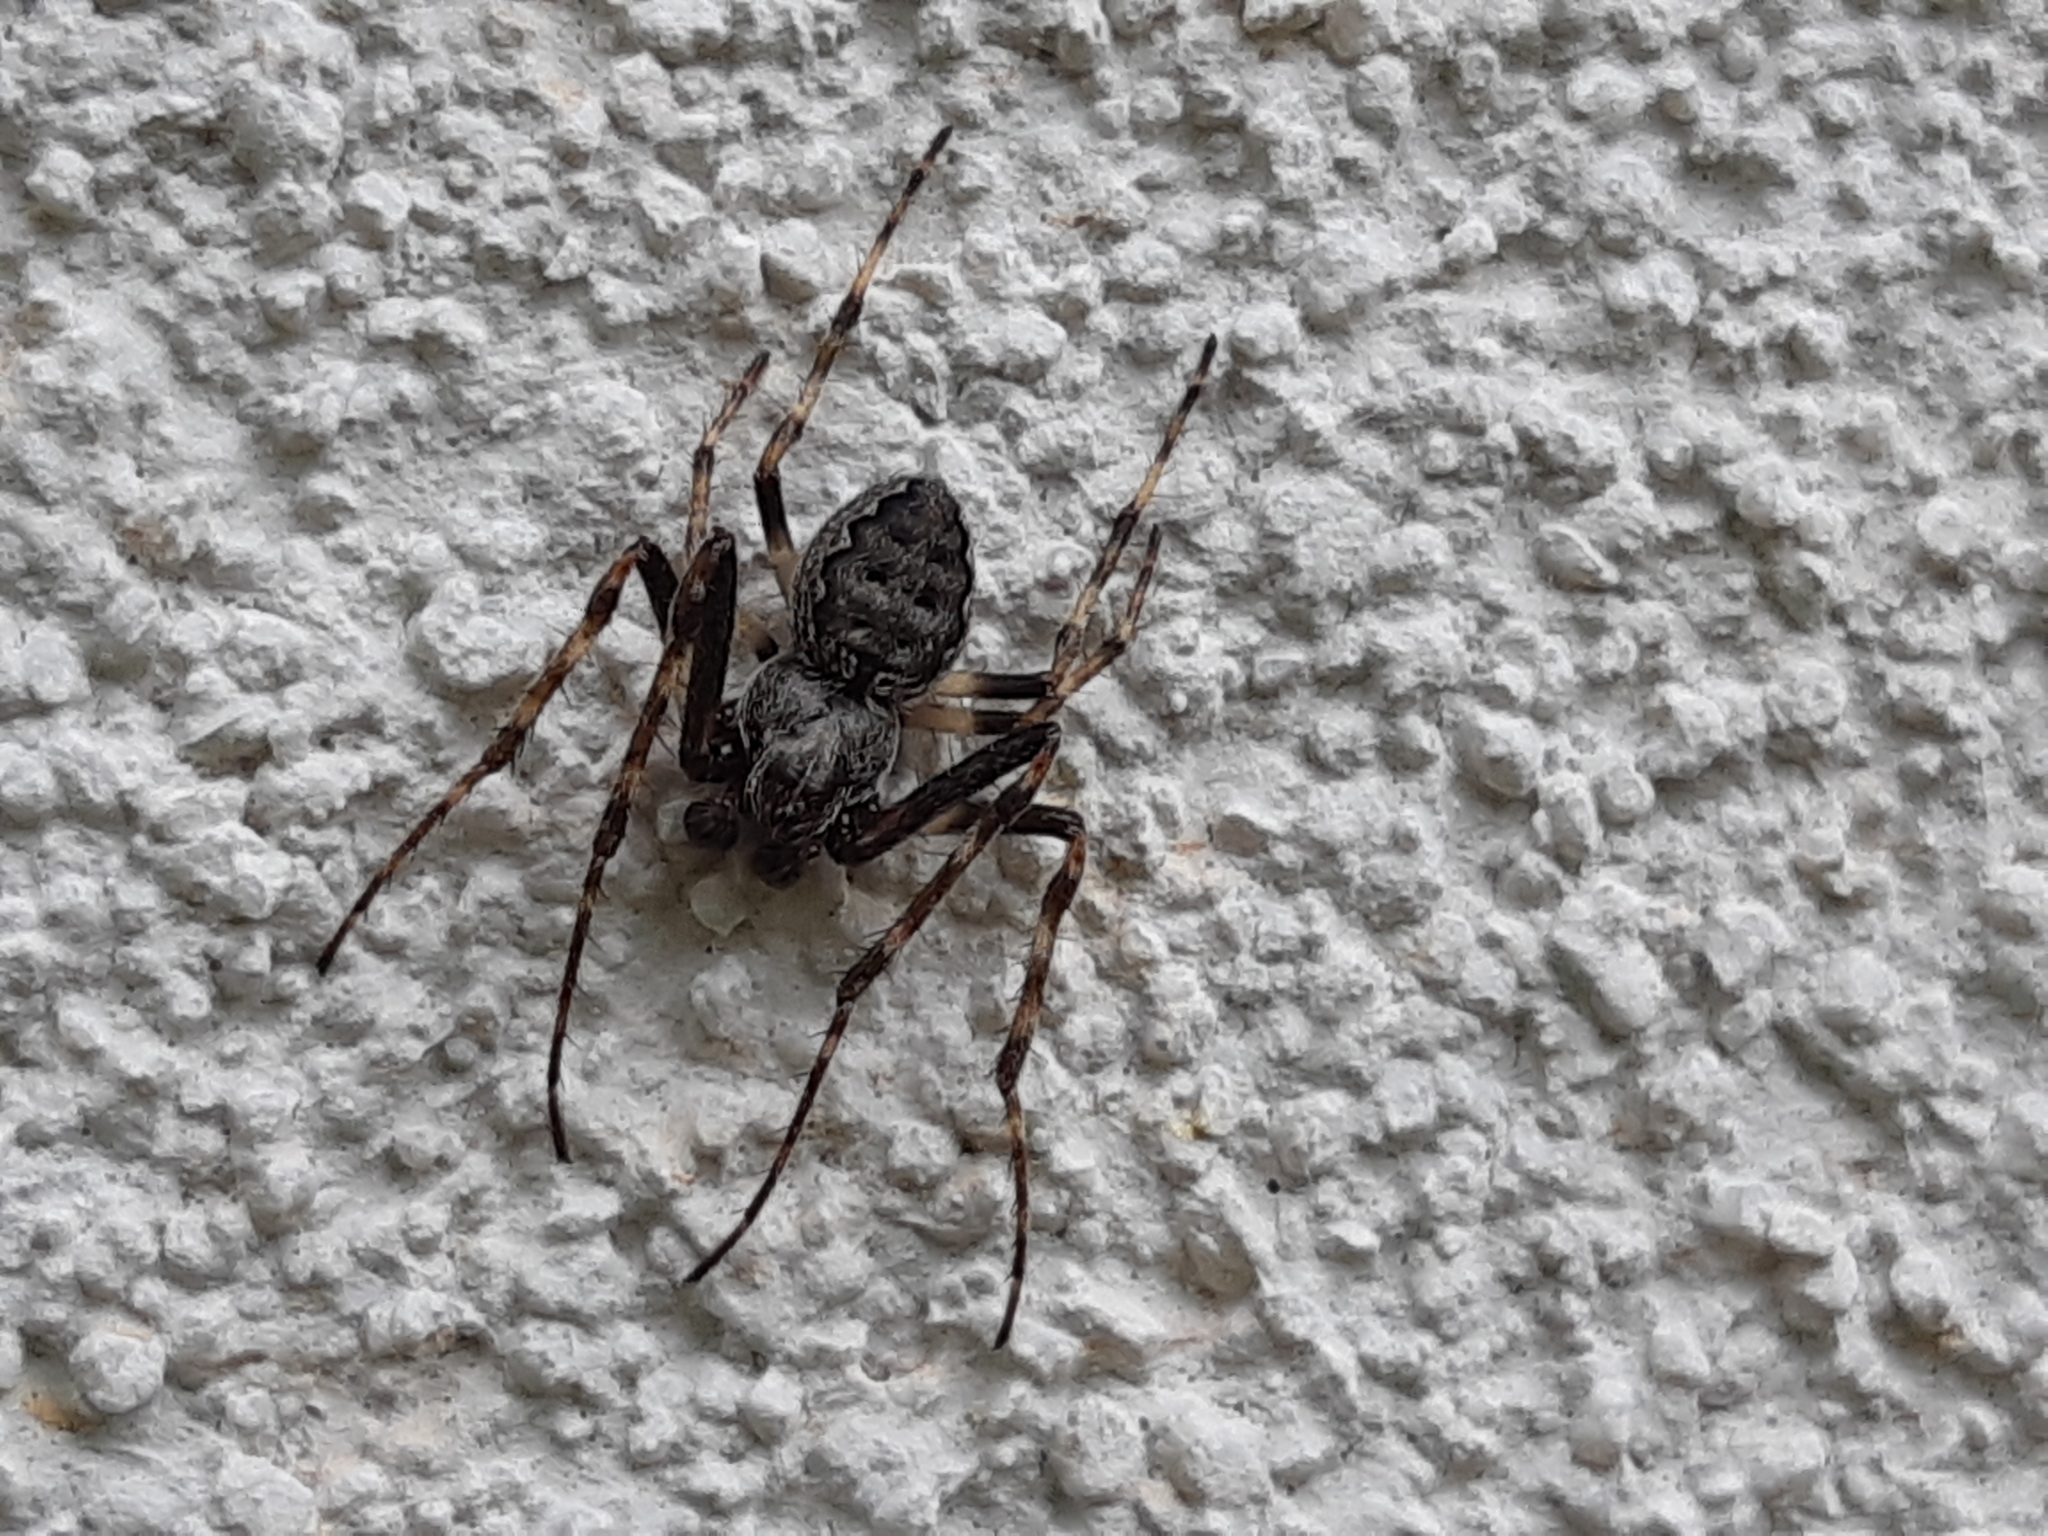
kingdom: Animalia
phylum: Arthropoda
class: Arachnida
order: Araneae
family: Araneidae
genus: Nuctenea
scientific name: Nuctenea umbratica
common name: Toad spider
